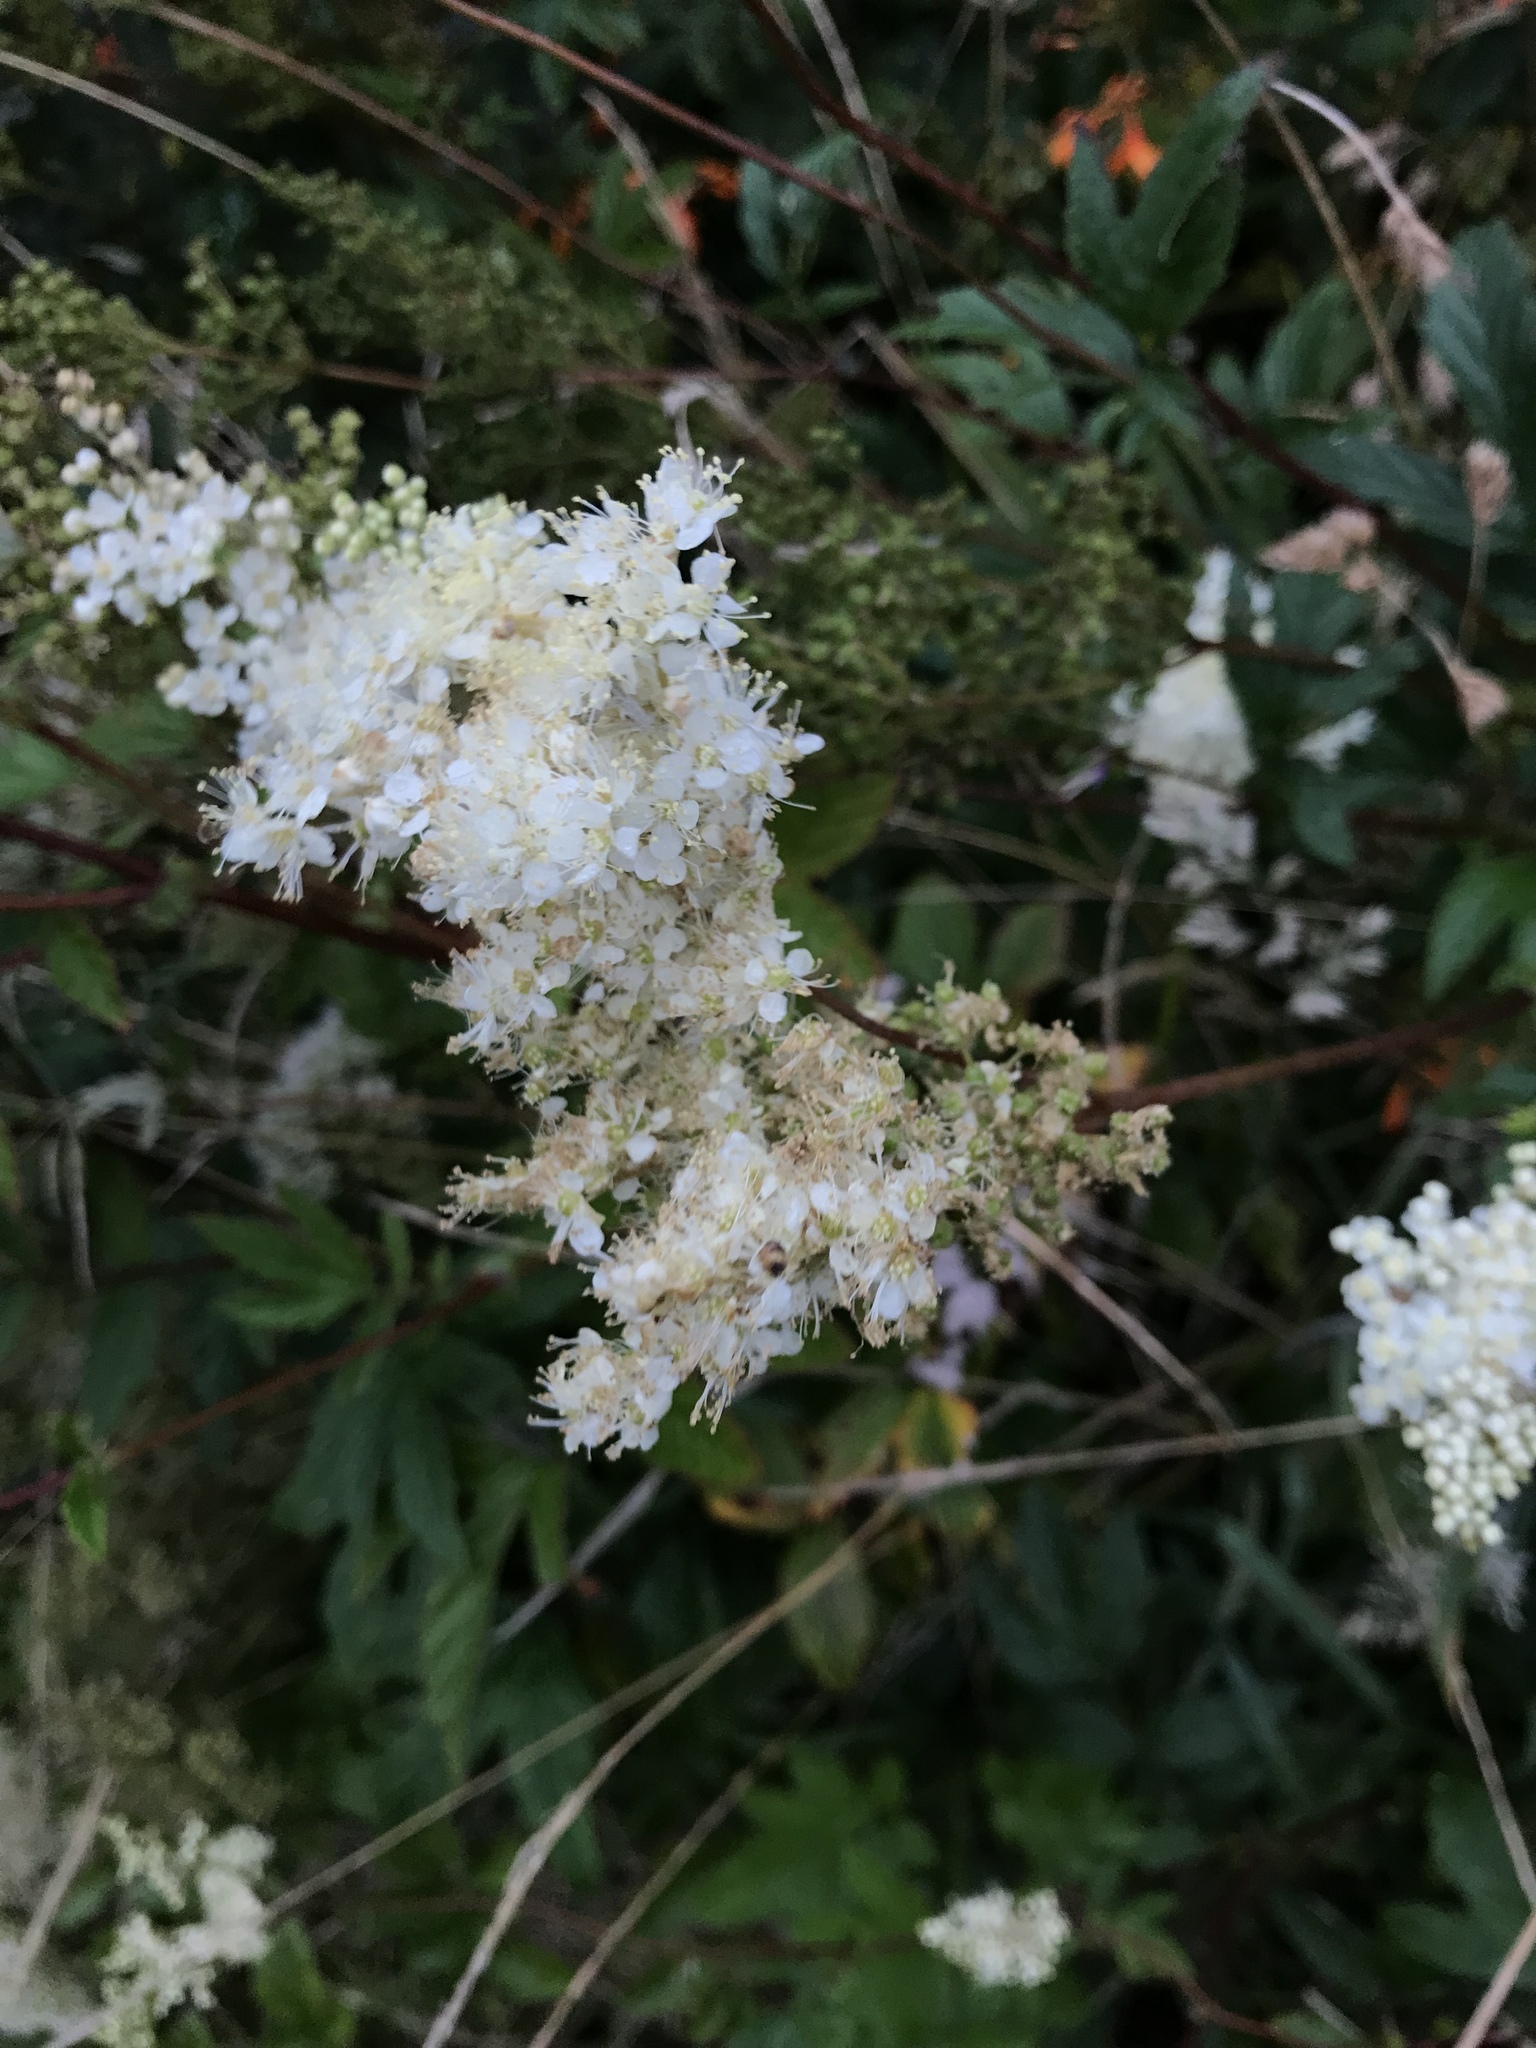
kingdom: Plantae
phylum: Tracheophyta
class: Magnoliopsida
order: Rosales
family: Rosaceae
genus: Filipendula
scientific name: Filipendula ulmaria
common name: Meadowsweet
